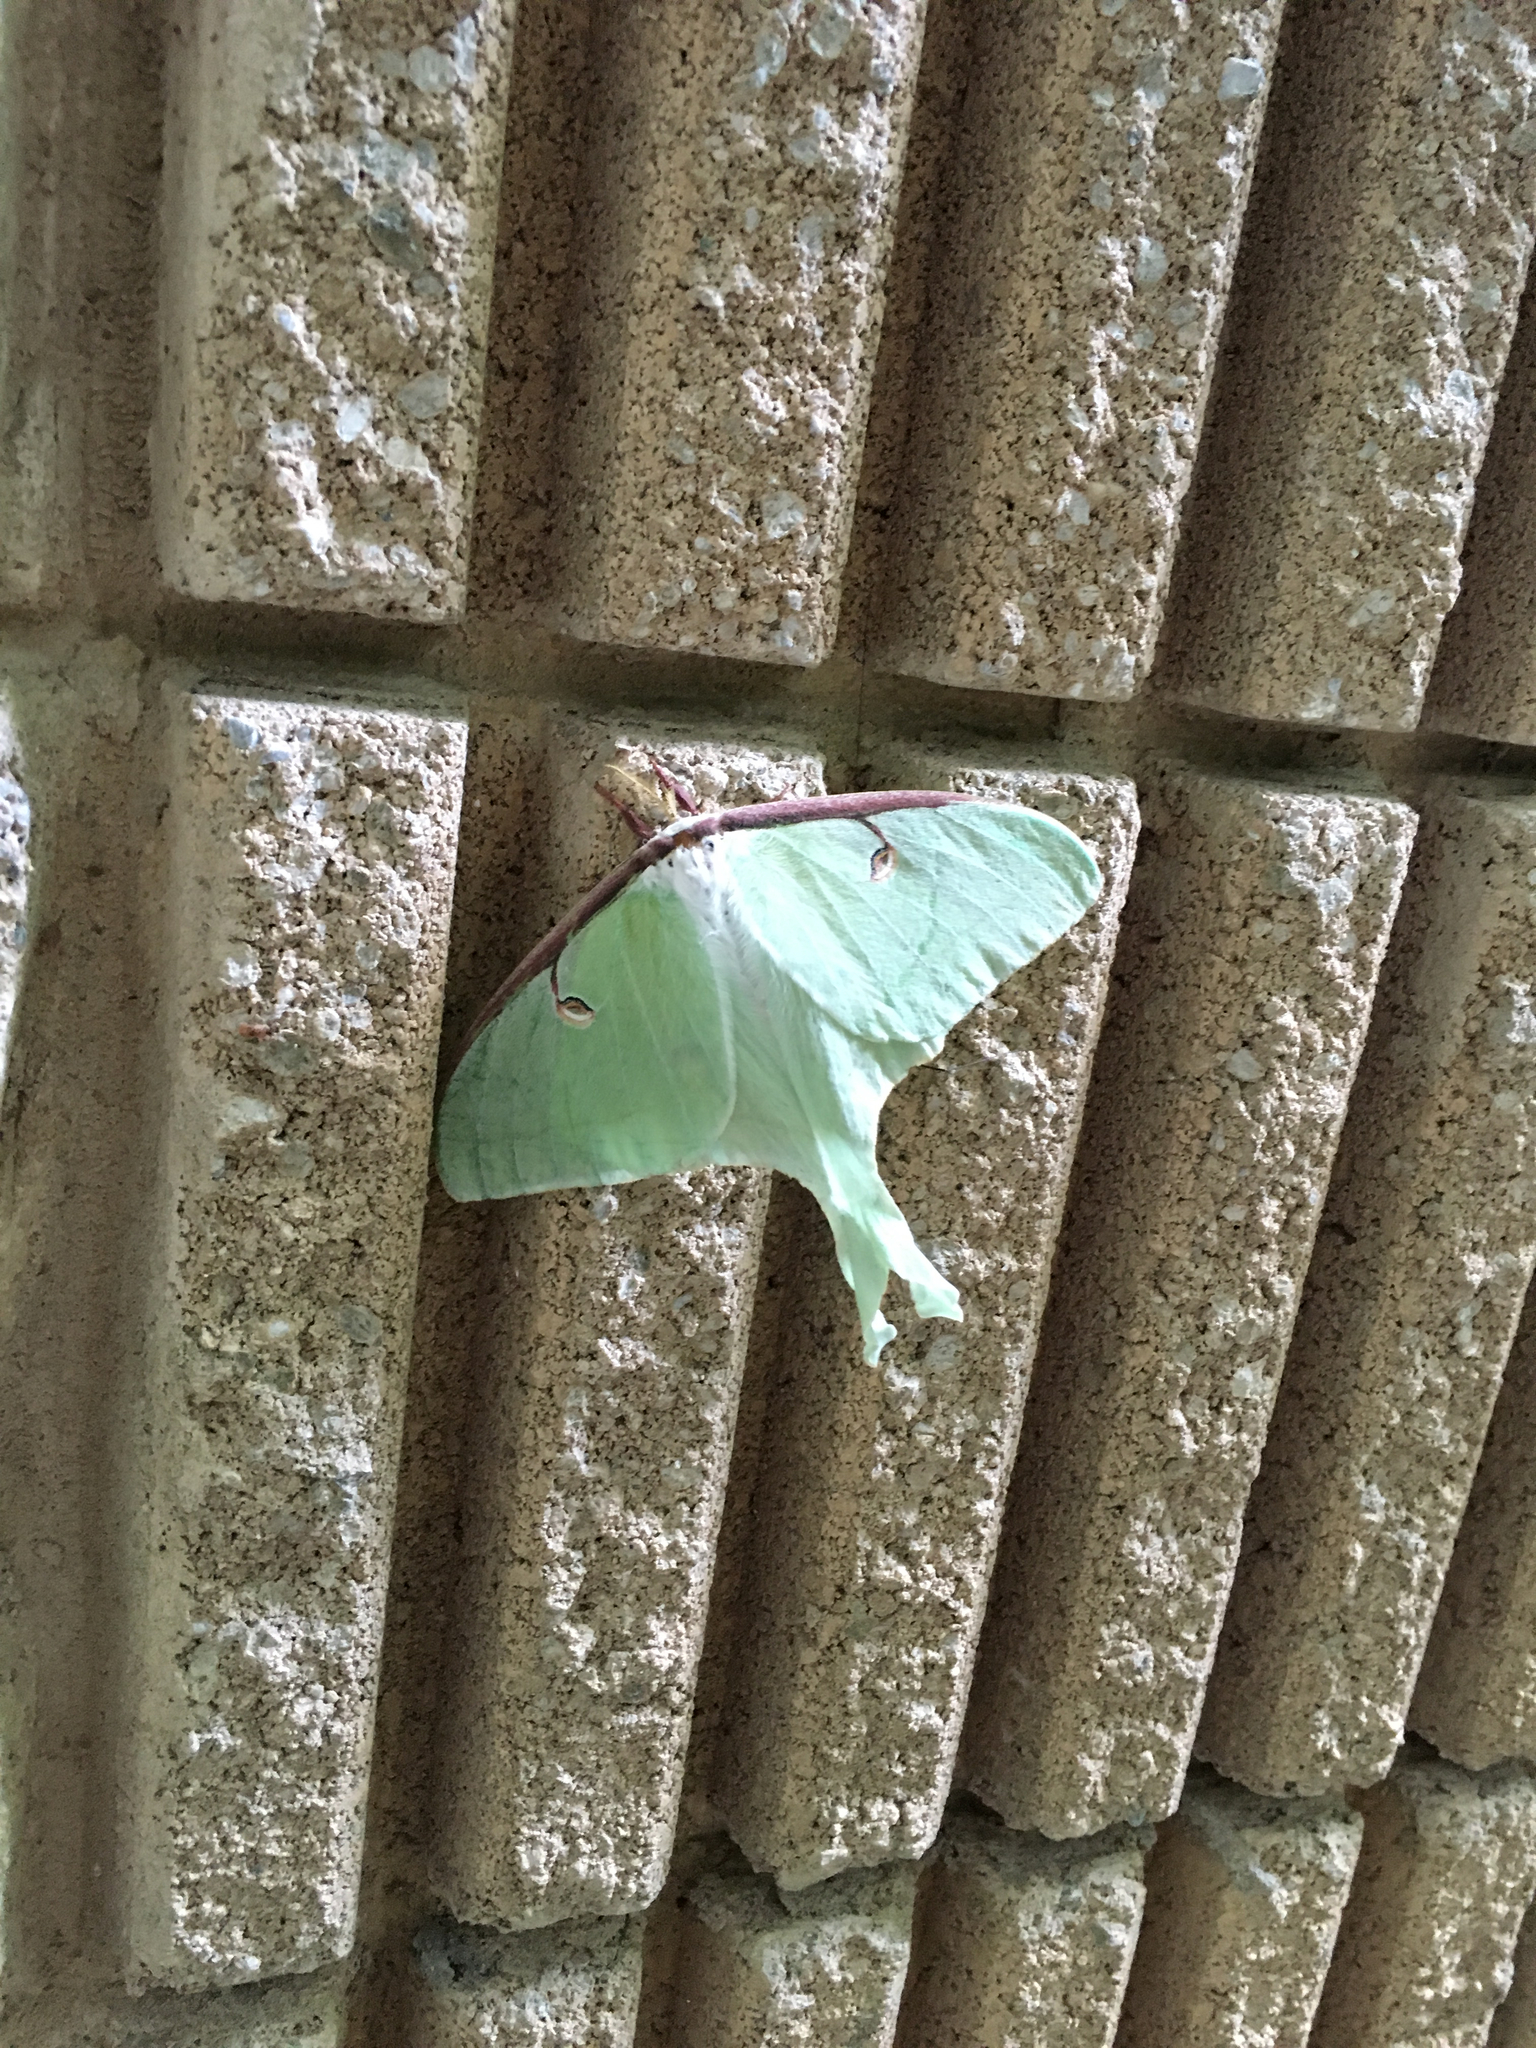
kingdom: Animalia
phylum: Arthropoda
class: Insecta
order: Lepidoptera
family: Saturniidae
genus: Actias
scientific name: Actias luna
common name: Luna moth
